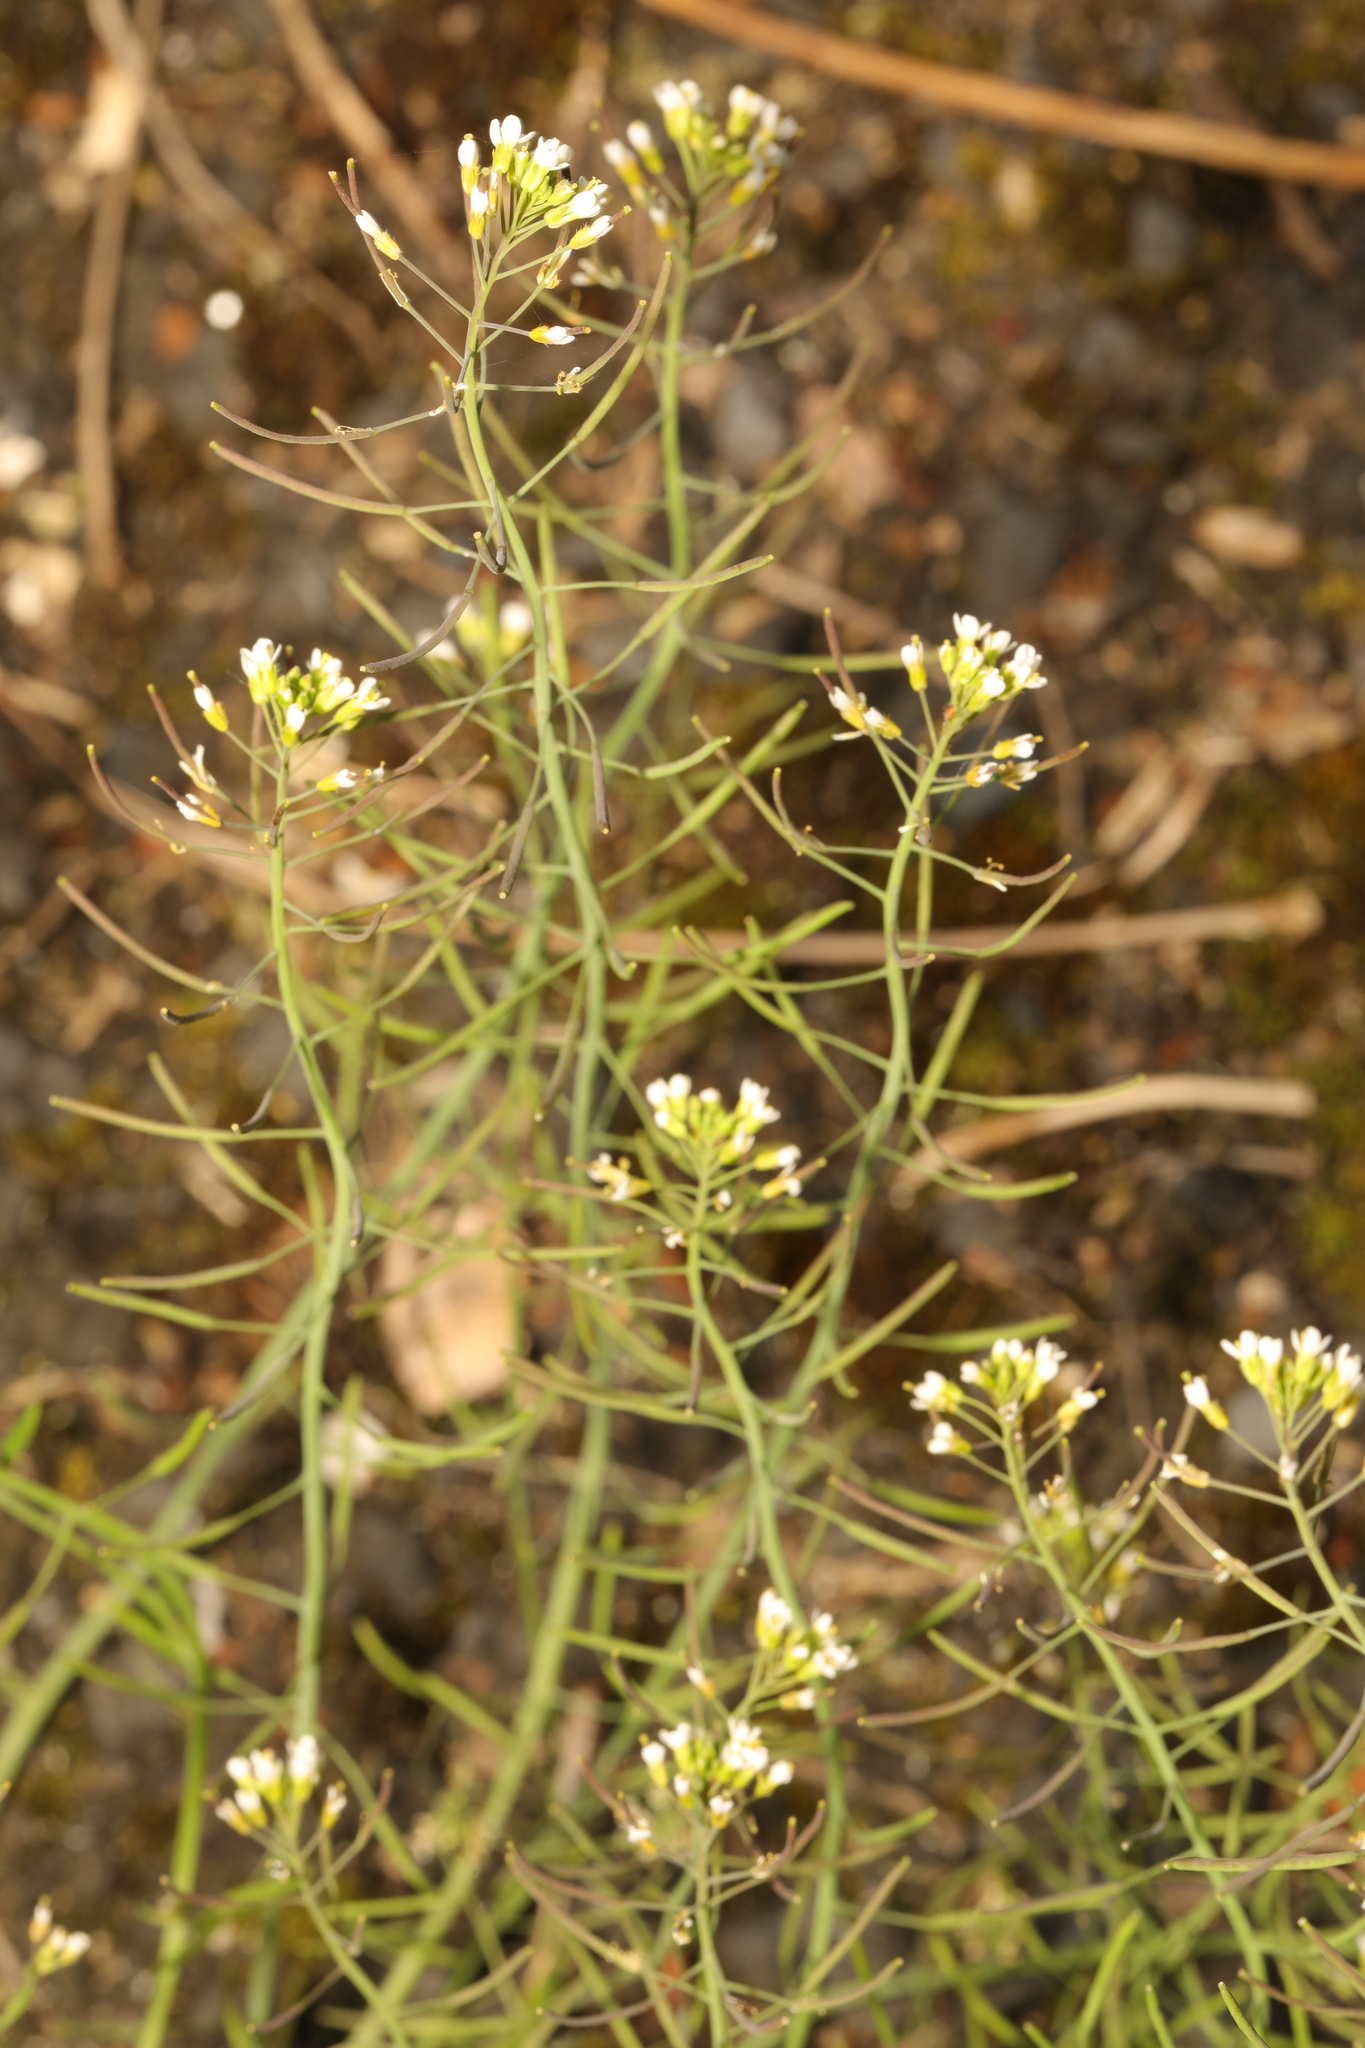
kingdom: Plantae
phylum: Tracheophyta
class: Magnoliopsida
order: Brassicales
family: Brassicaceae
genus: Arabidopsis
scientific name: Arabidopsis thaliana
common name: Thale cress
